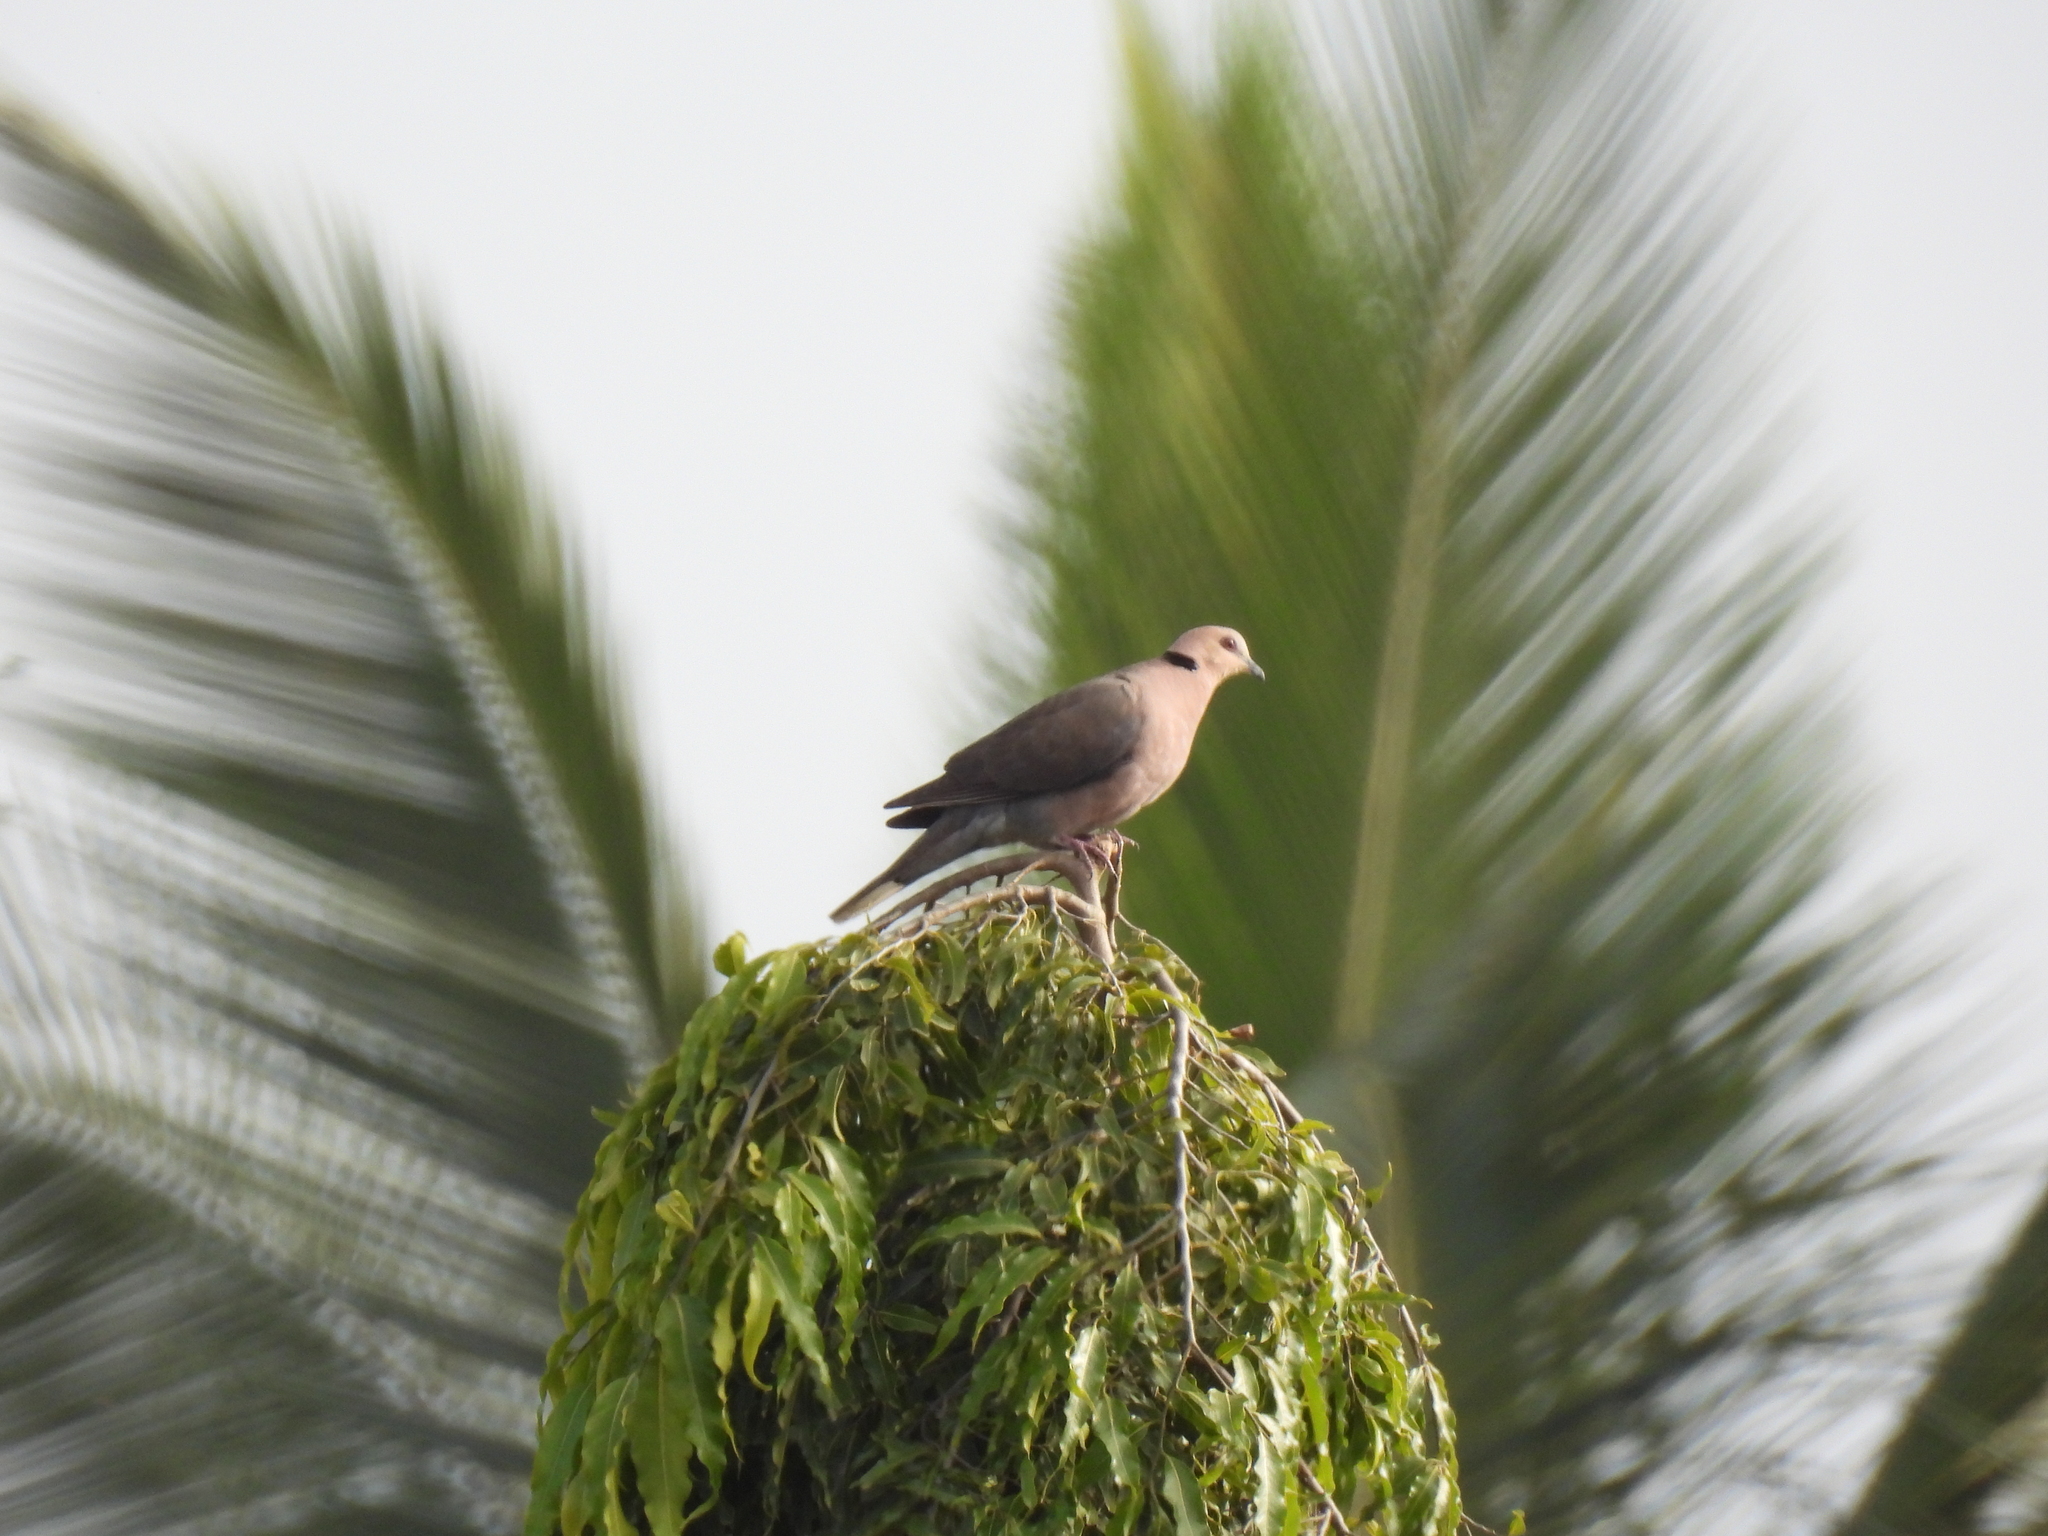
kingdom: Animalia
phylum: Chordata
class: Aves
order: Columbiformes
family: Columbidae
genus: Streptopelia
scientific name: Streptopelia semitorquata
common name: Red-eyed dove
